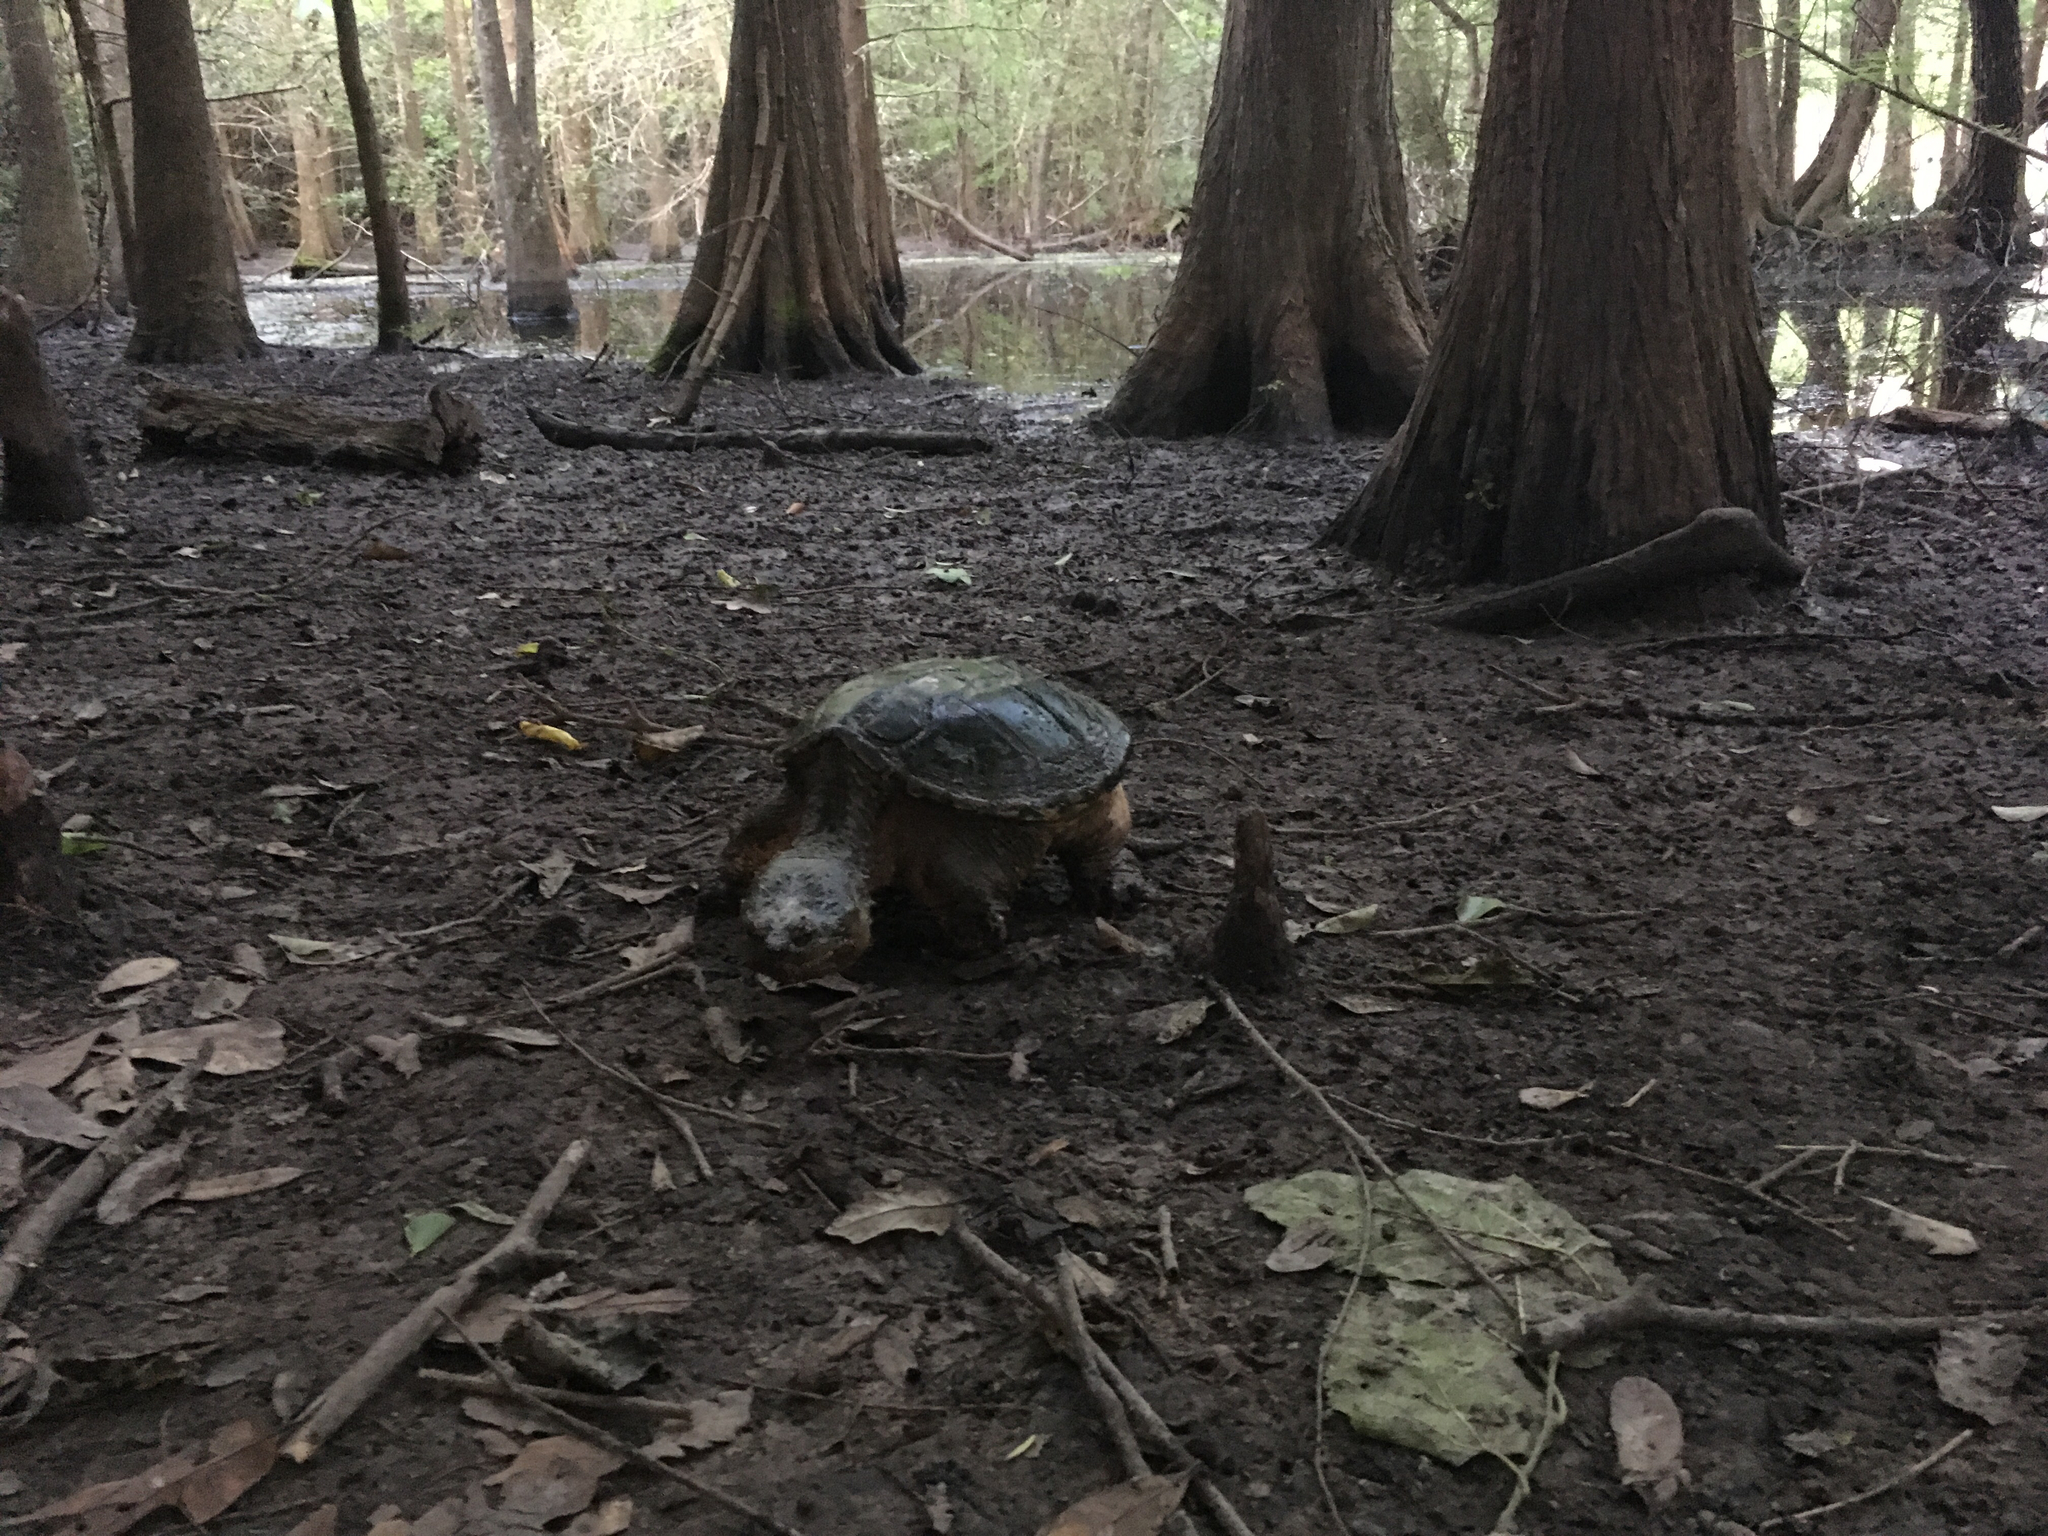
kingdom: Animalia
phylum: Chordata
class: Testudines
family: Chelydridae
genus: Chelydra
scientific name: Chelydra serpentina
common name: Common snapping turtle
